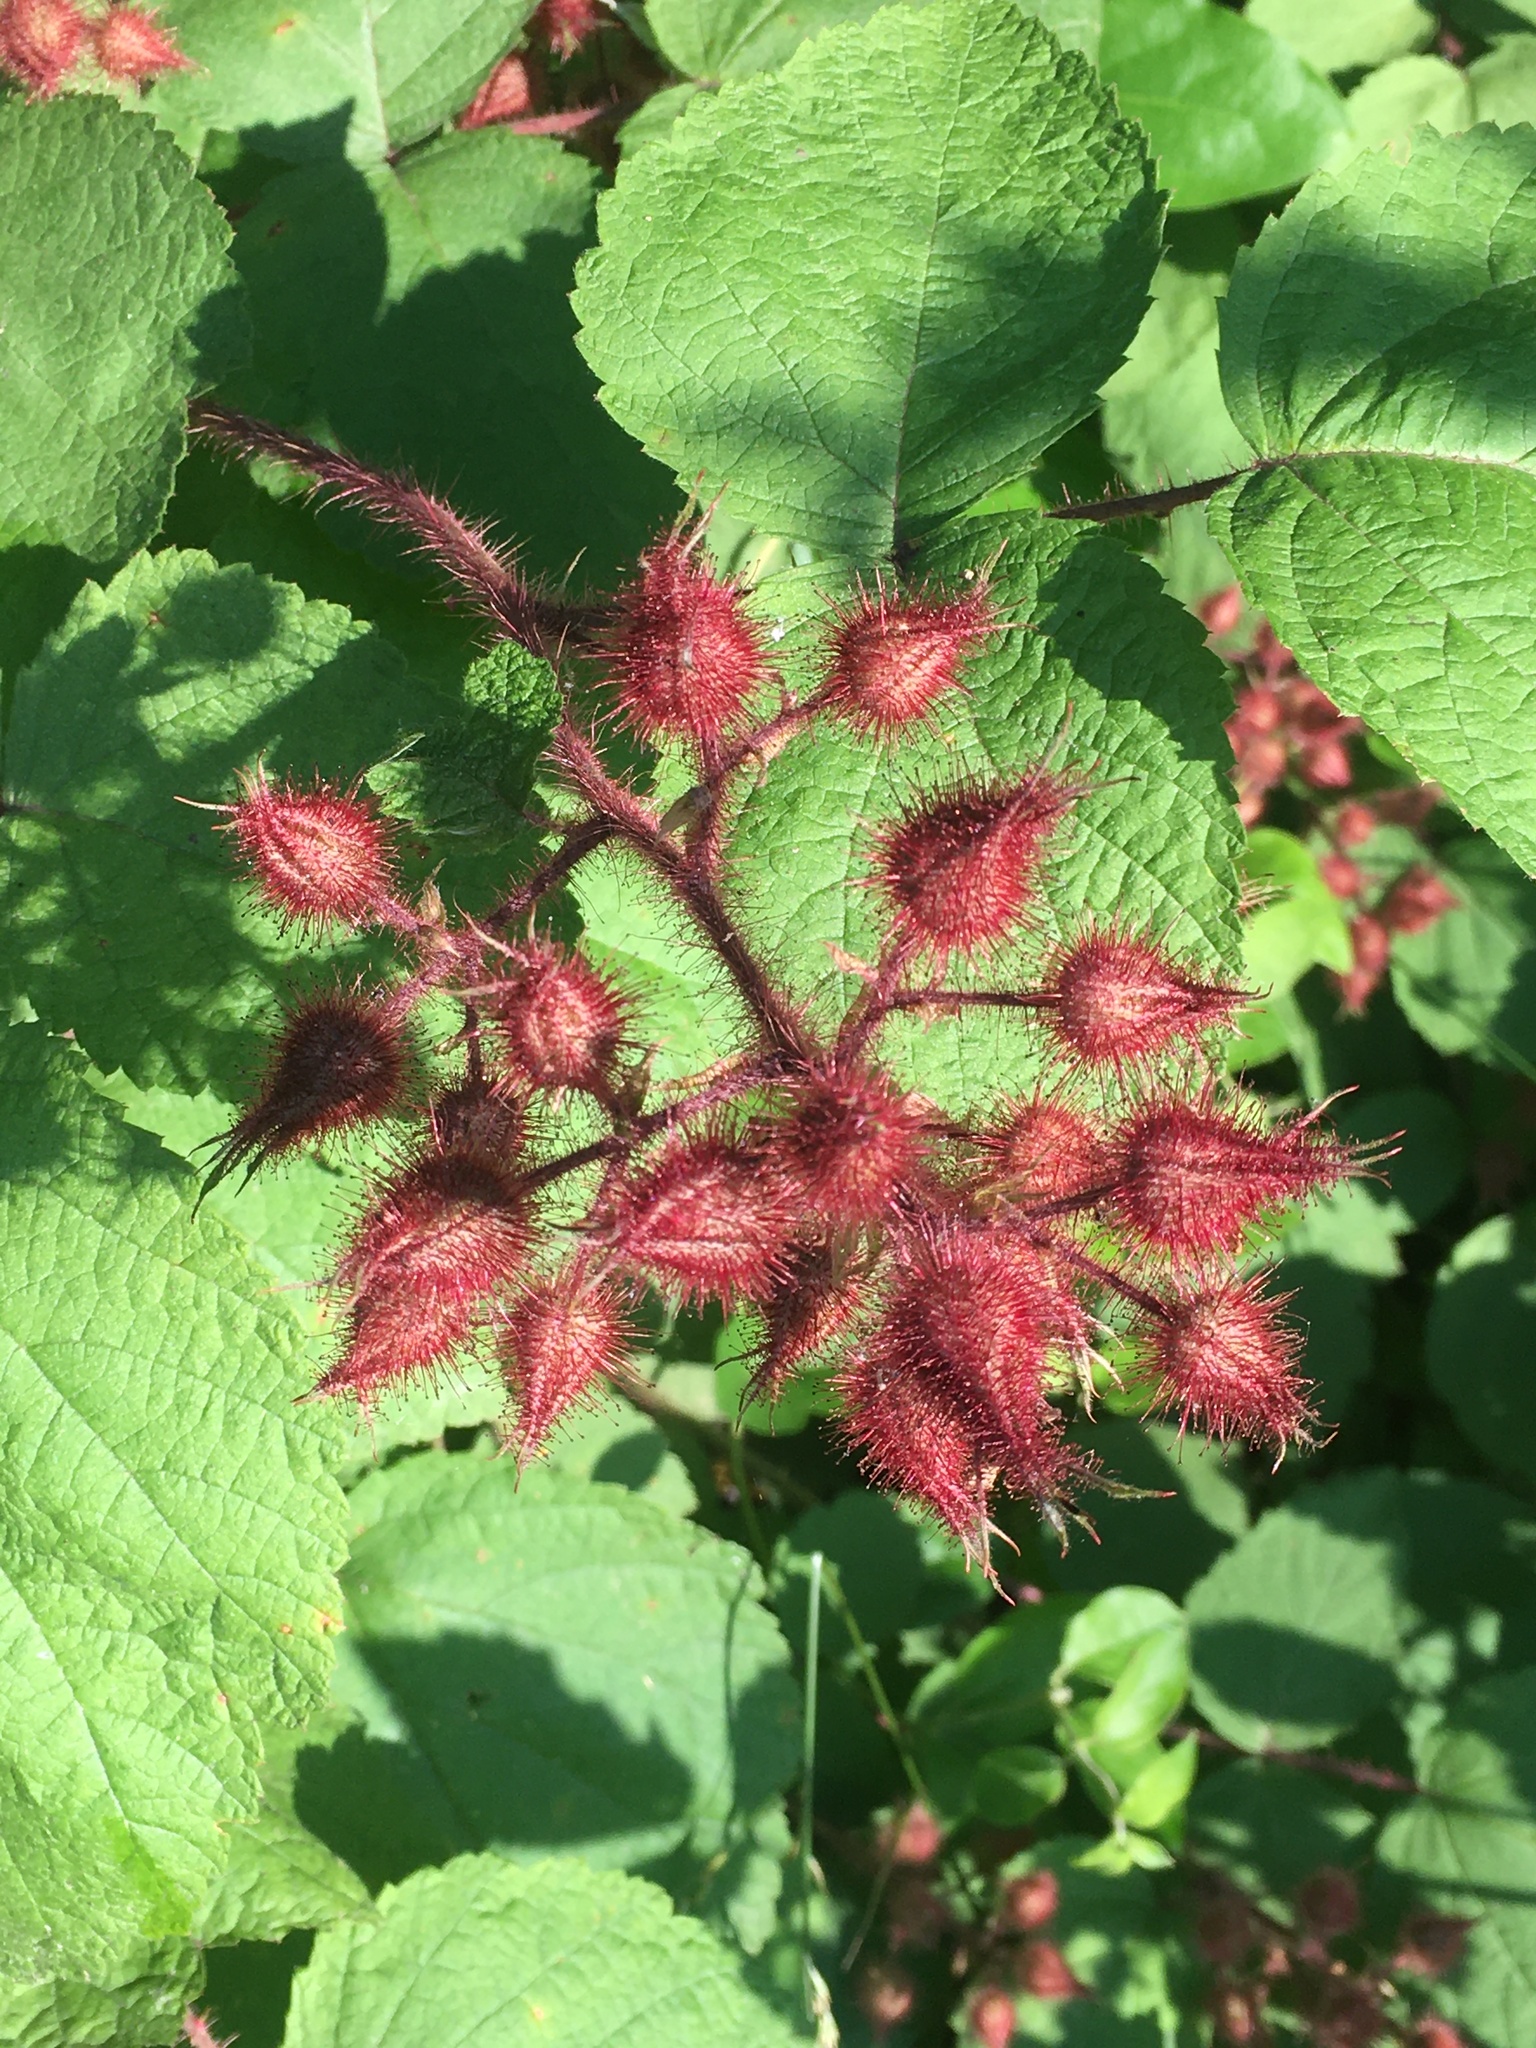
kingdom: Plantae
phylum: Tracheophyta
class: Magnoliopsida
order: Rosales
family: Rosaceae
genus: Rubus
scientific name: Rubus phoenicolasius
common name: Japanese wineberry
